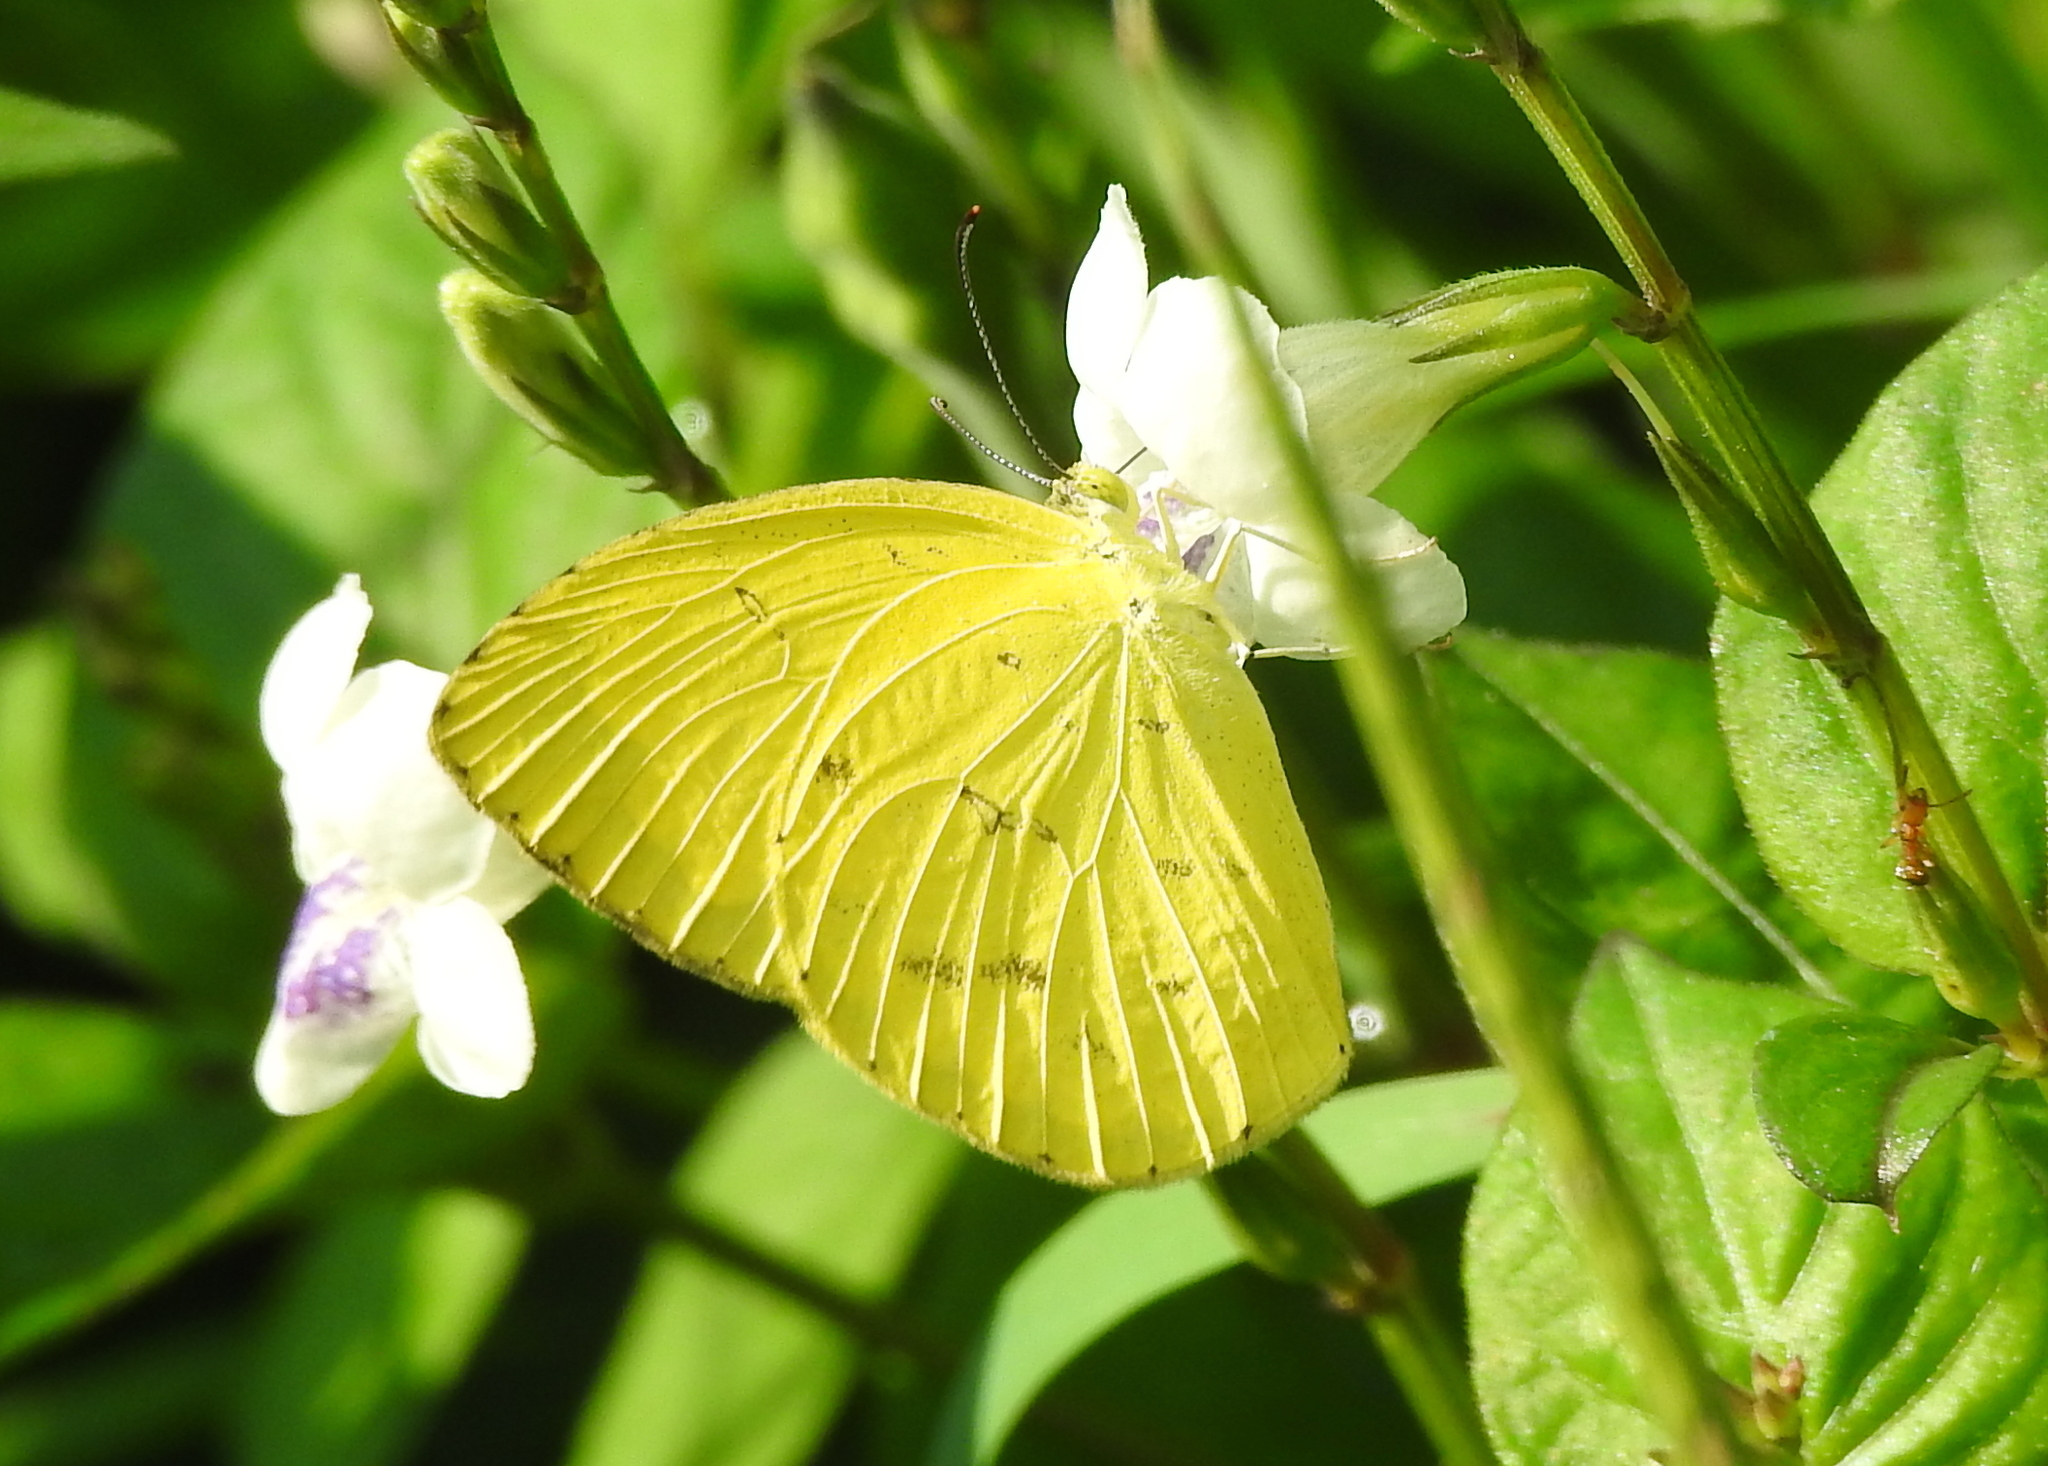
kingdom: Animalia
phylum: Arthropoda
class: Insecta
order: Lepidoptera
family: Pieridae
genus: Eurema
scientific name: Eurema hecabe
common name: Pale grass yellow
